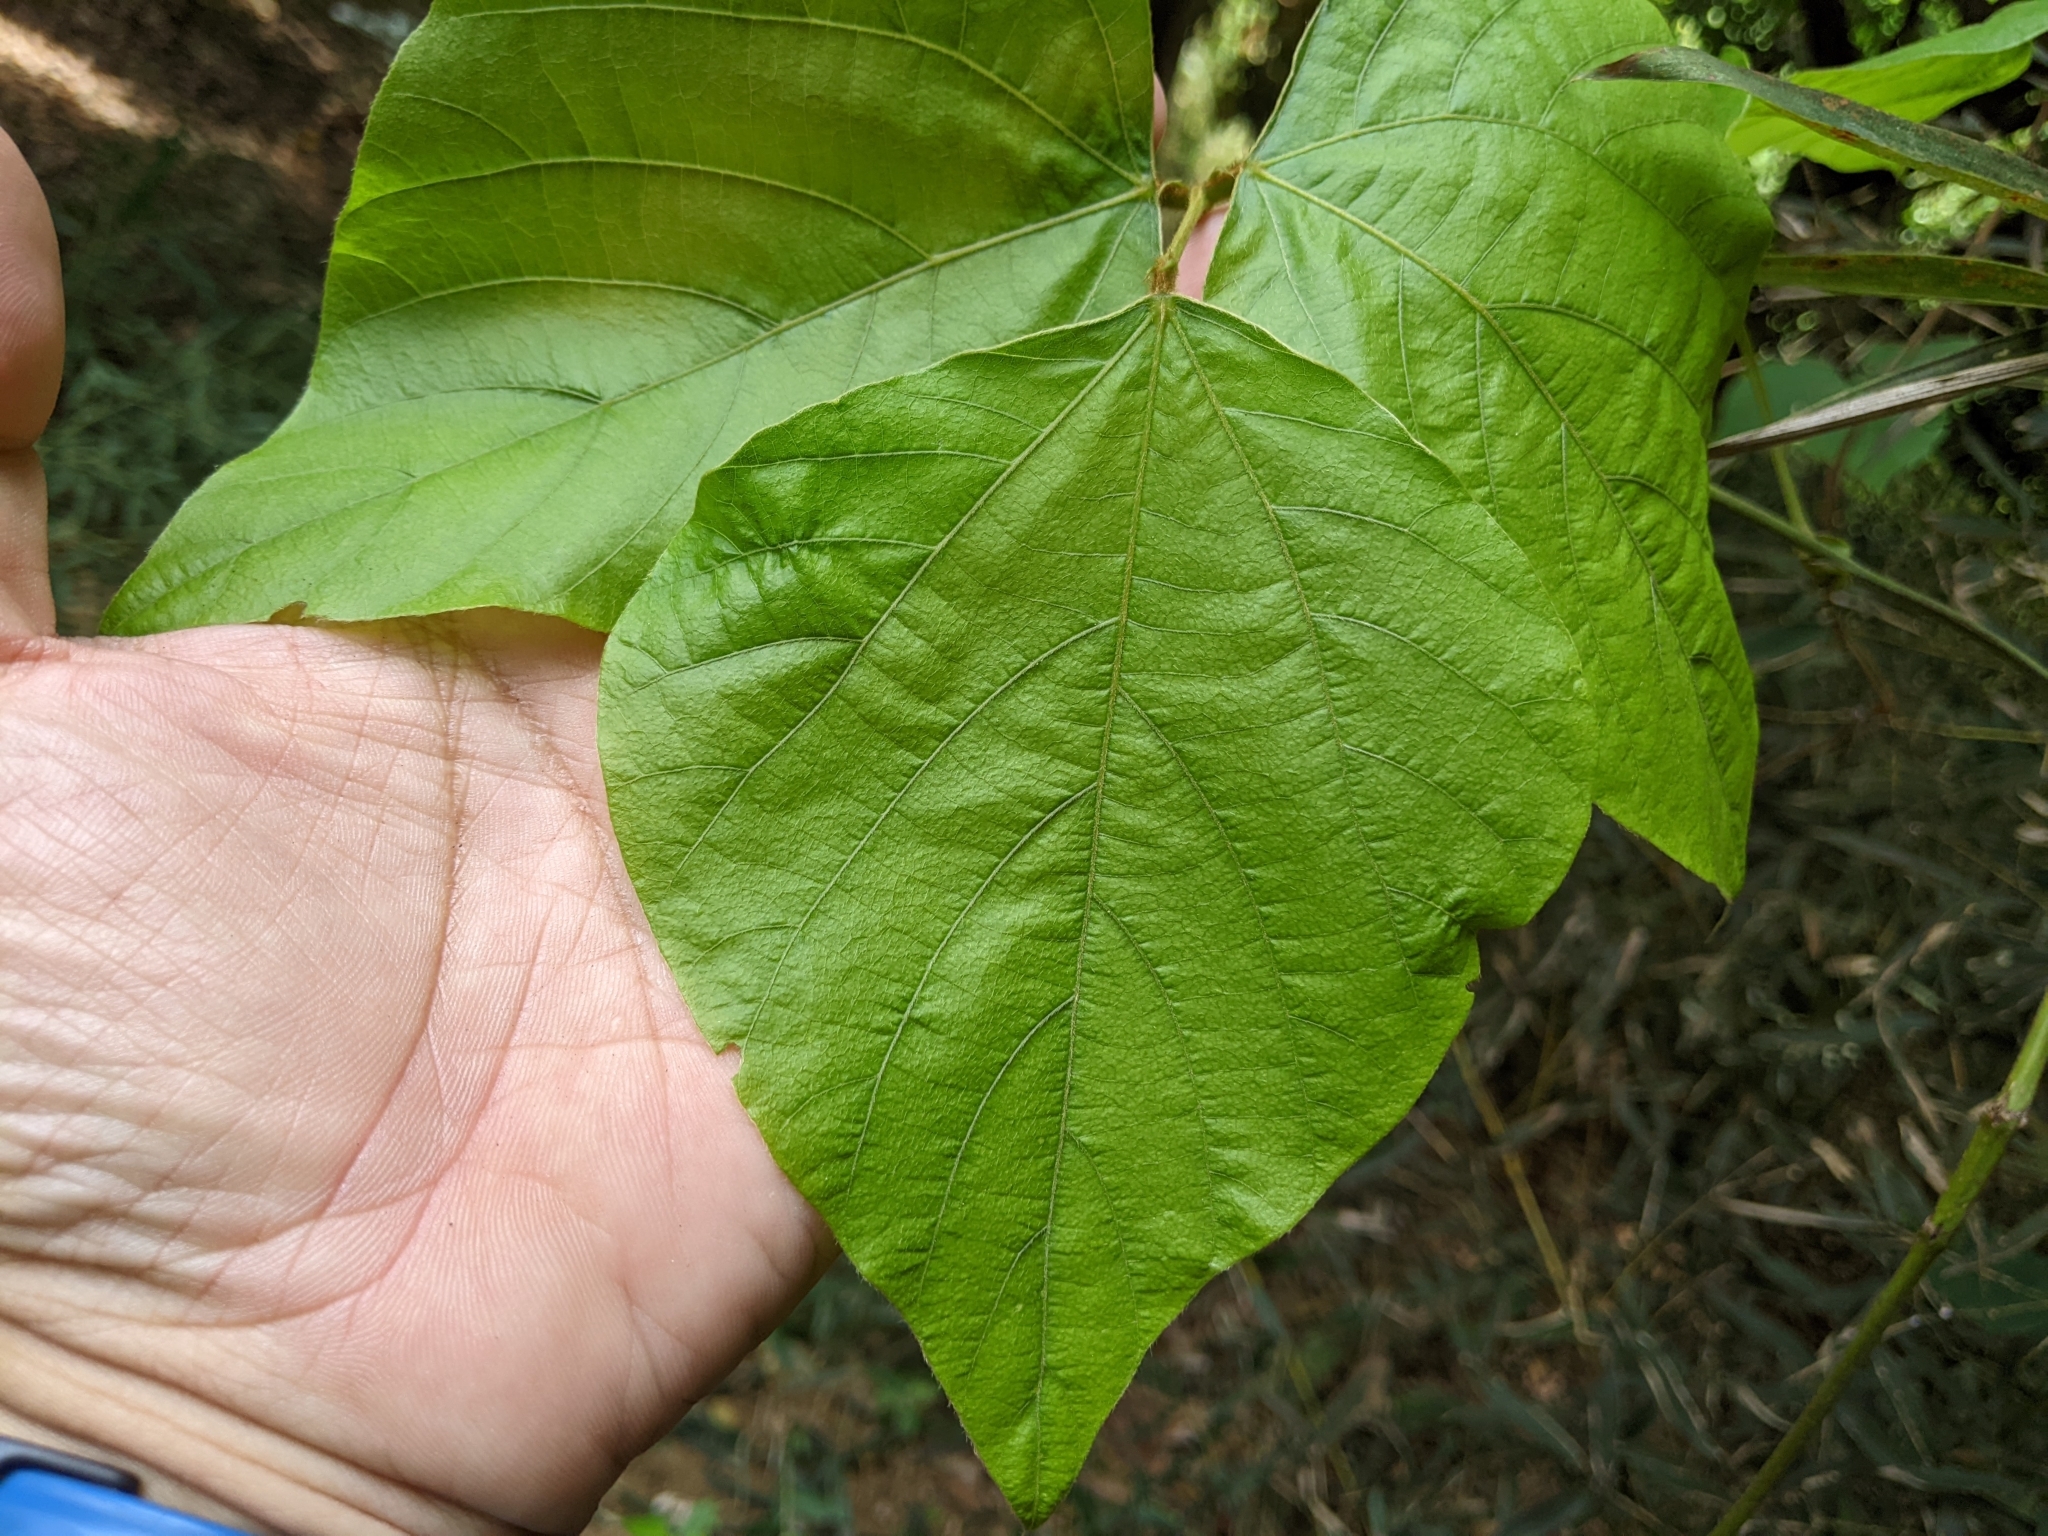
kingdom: Plantae
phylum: Tracheophyta
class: Magnoliopsida
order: Fabales
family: Fabaceae
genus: Pueraria
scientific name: Pueraria montana
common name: Kudzu
